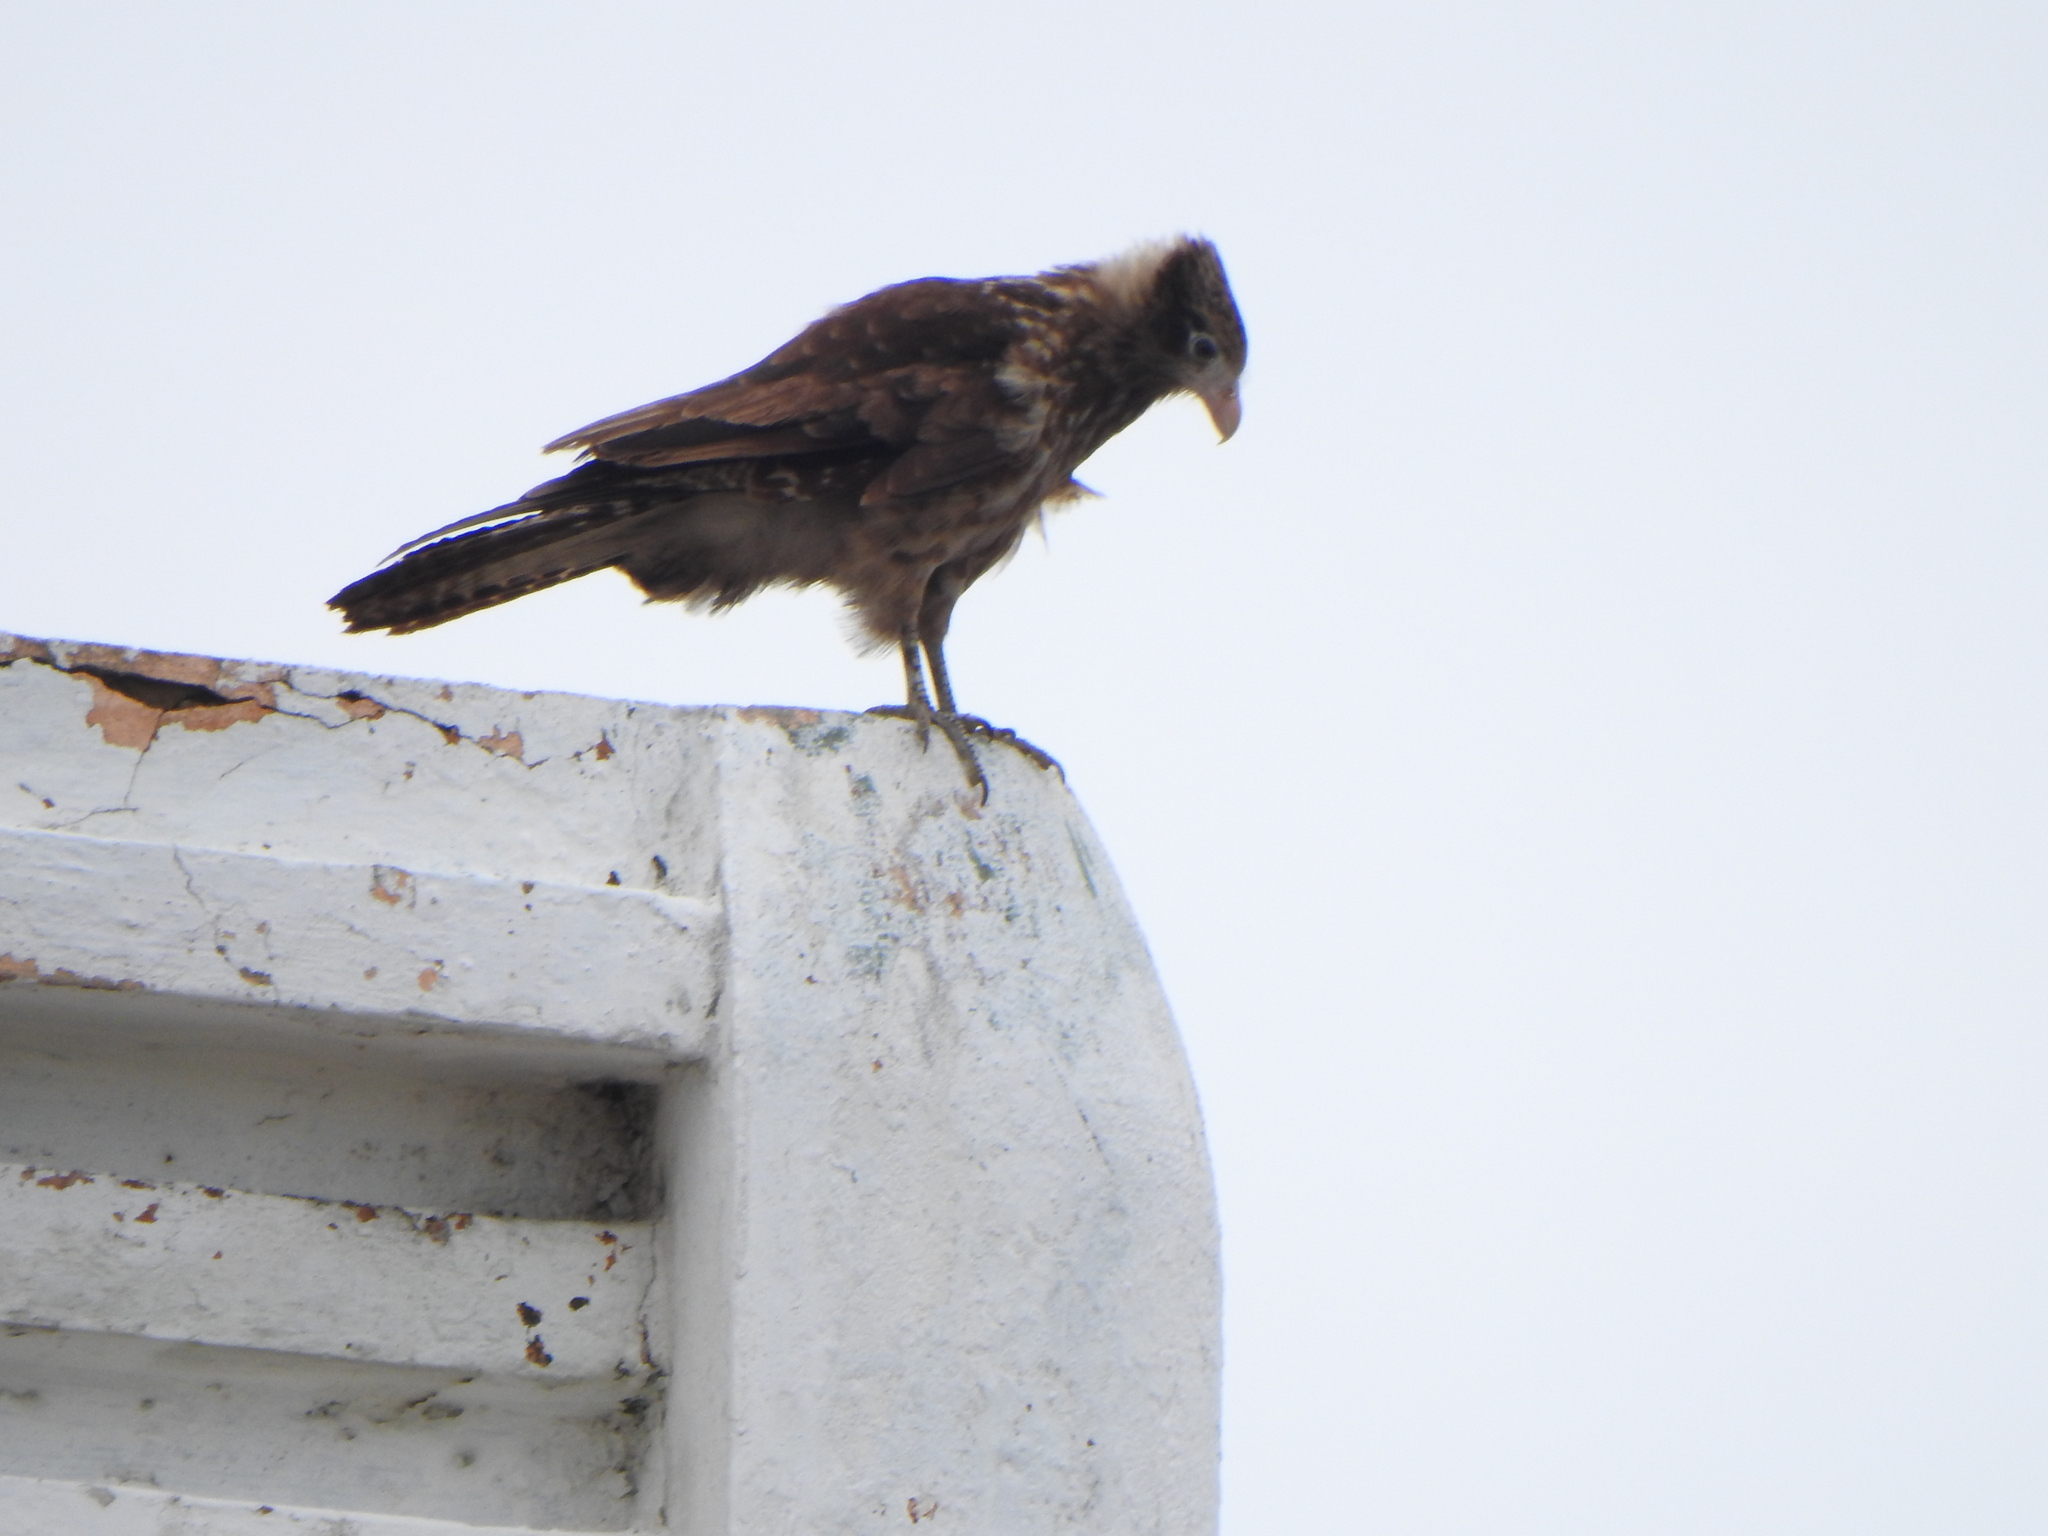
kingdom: Animalia
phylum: Chordata
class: Aves
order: Falconiformes
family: Falconidae
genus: Daptrius
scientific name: Daptrius
